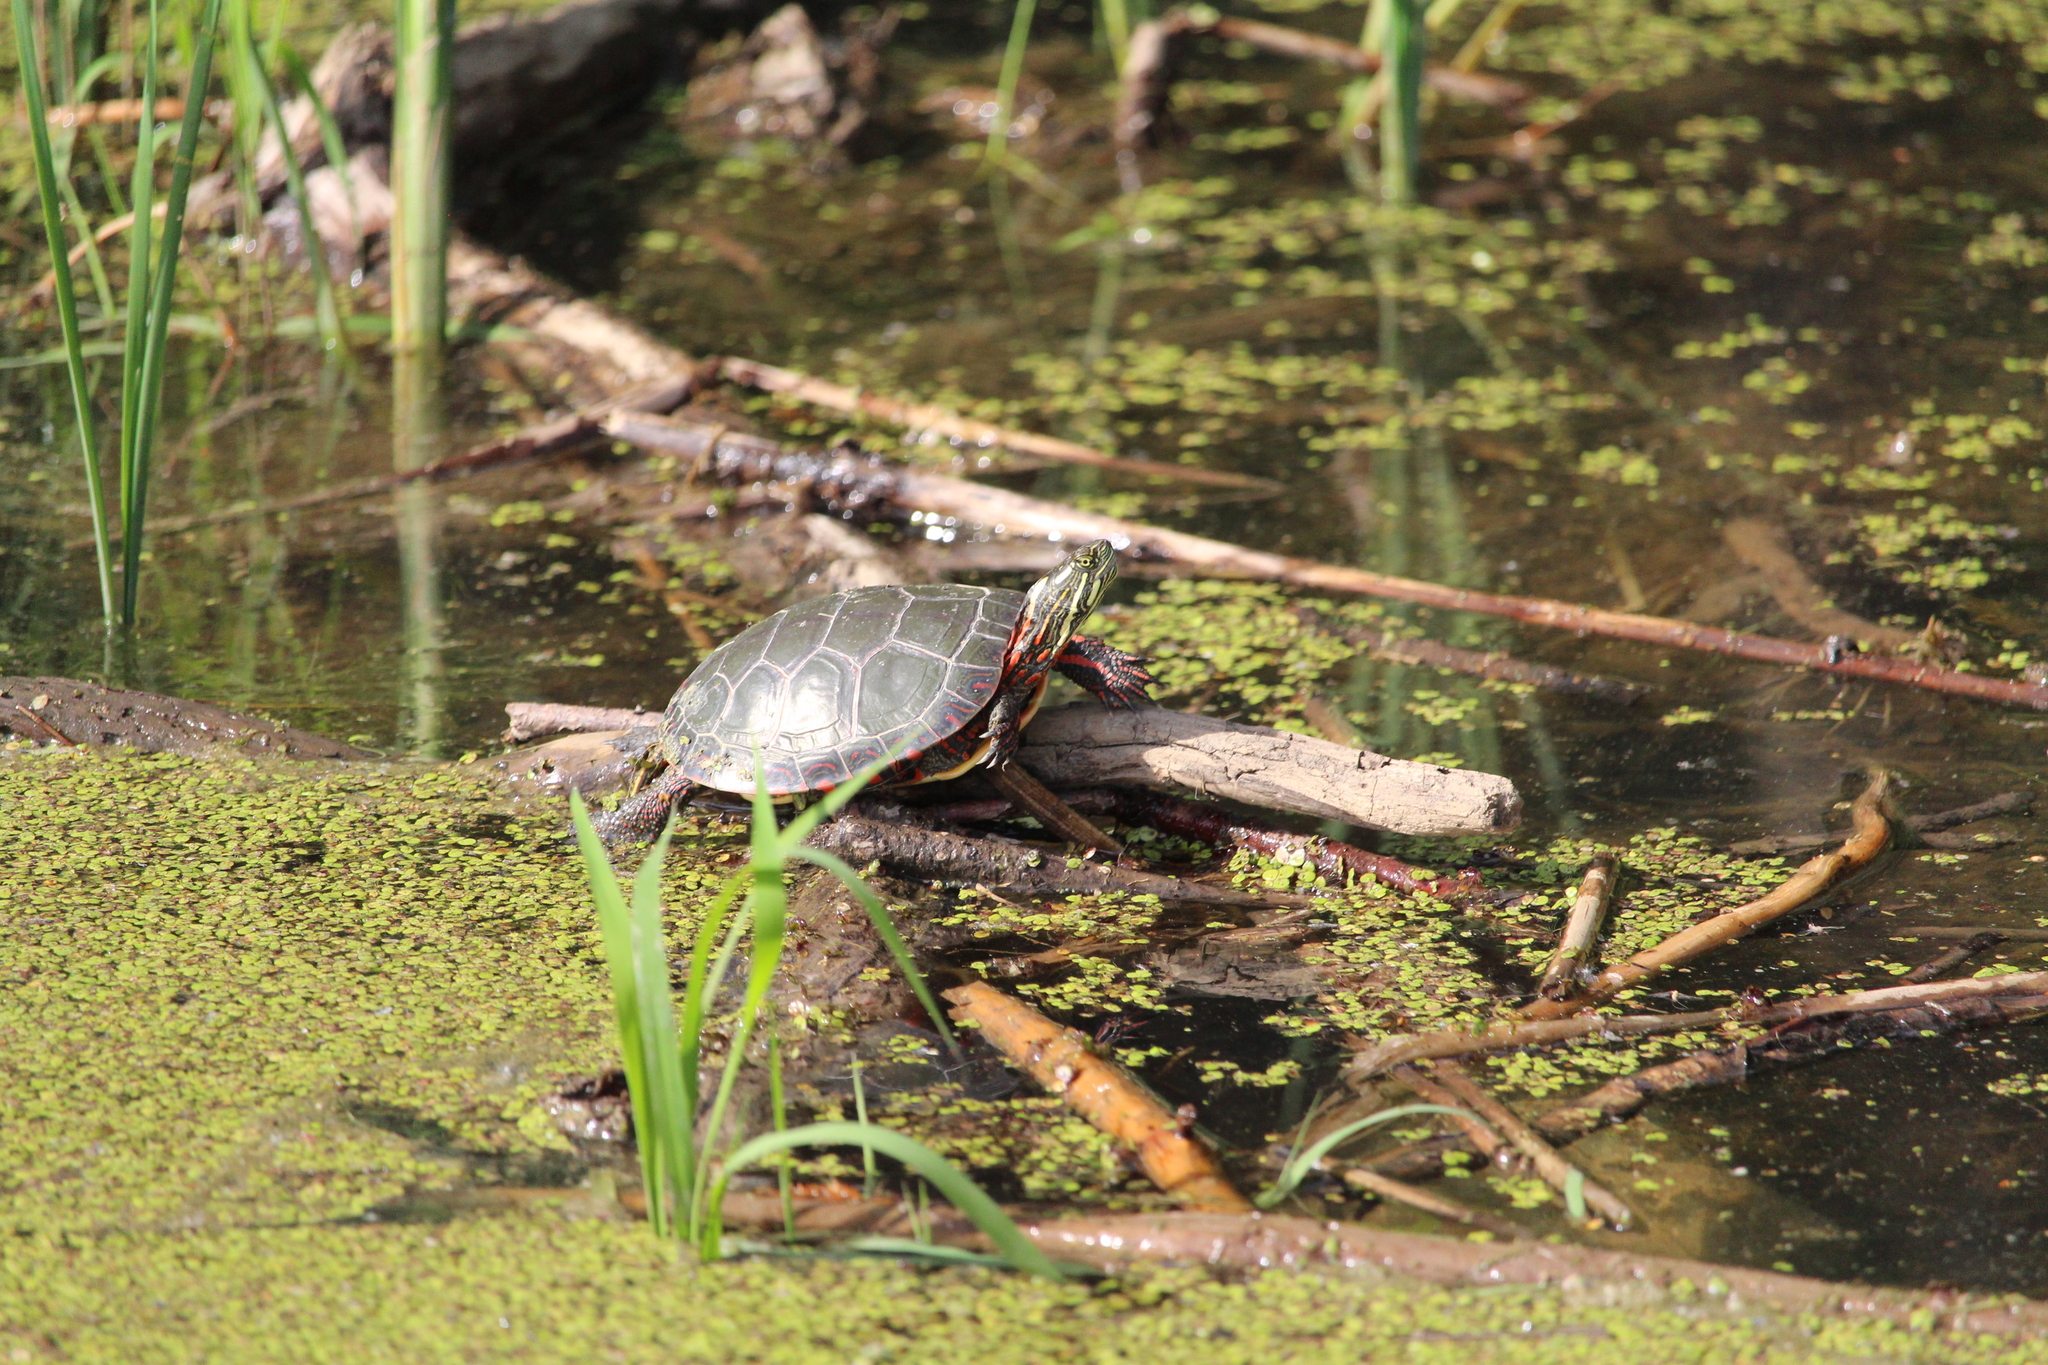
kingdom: Animalia
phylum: Chordata
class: Testudines
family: Emydidae
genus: Chrysemys
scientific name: Chrysemys picta
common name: Painted turtle
